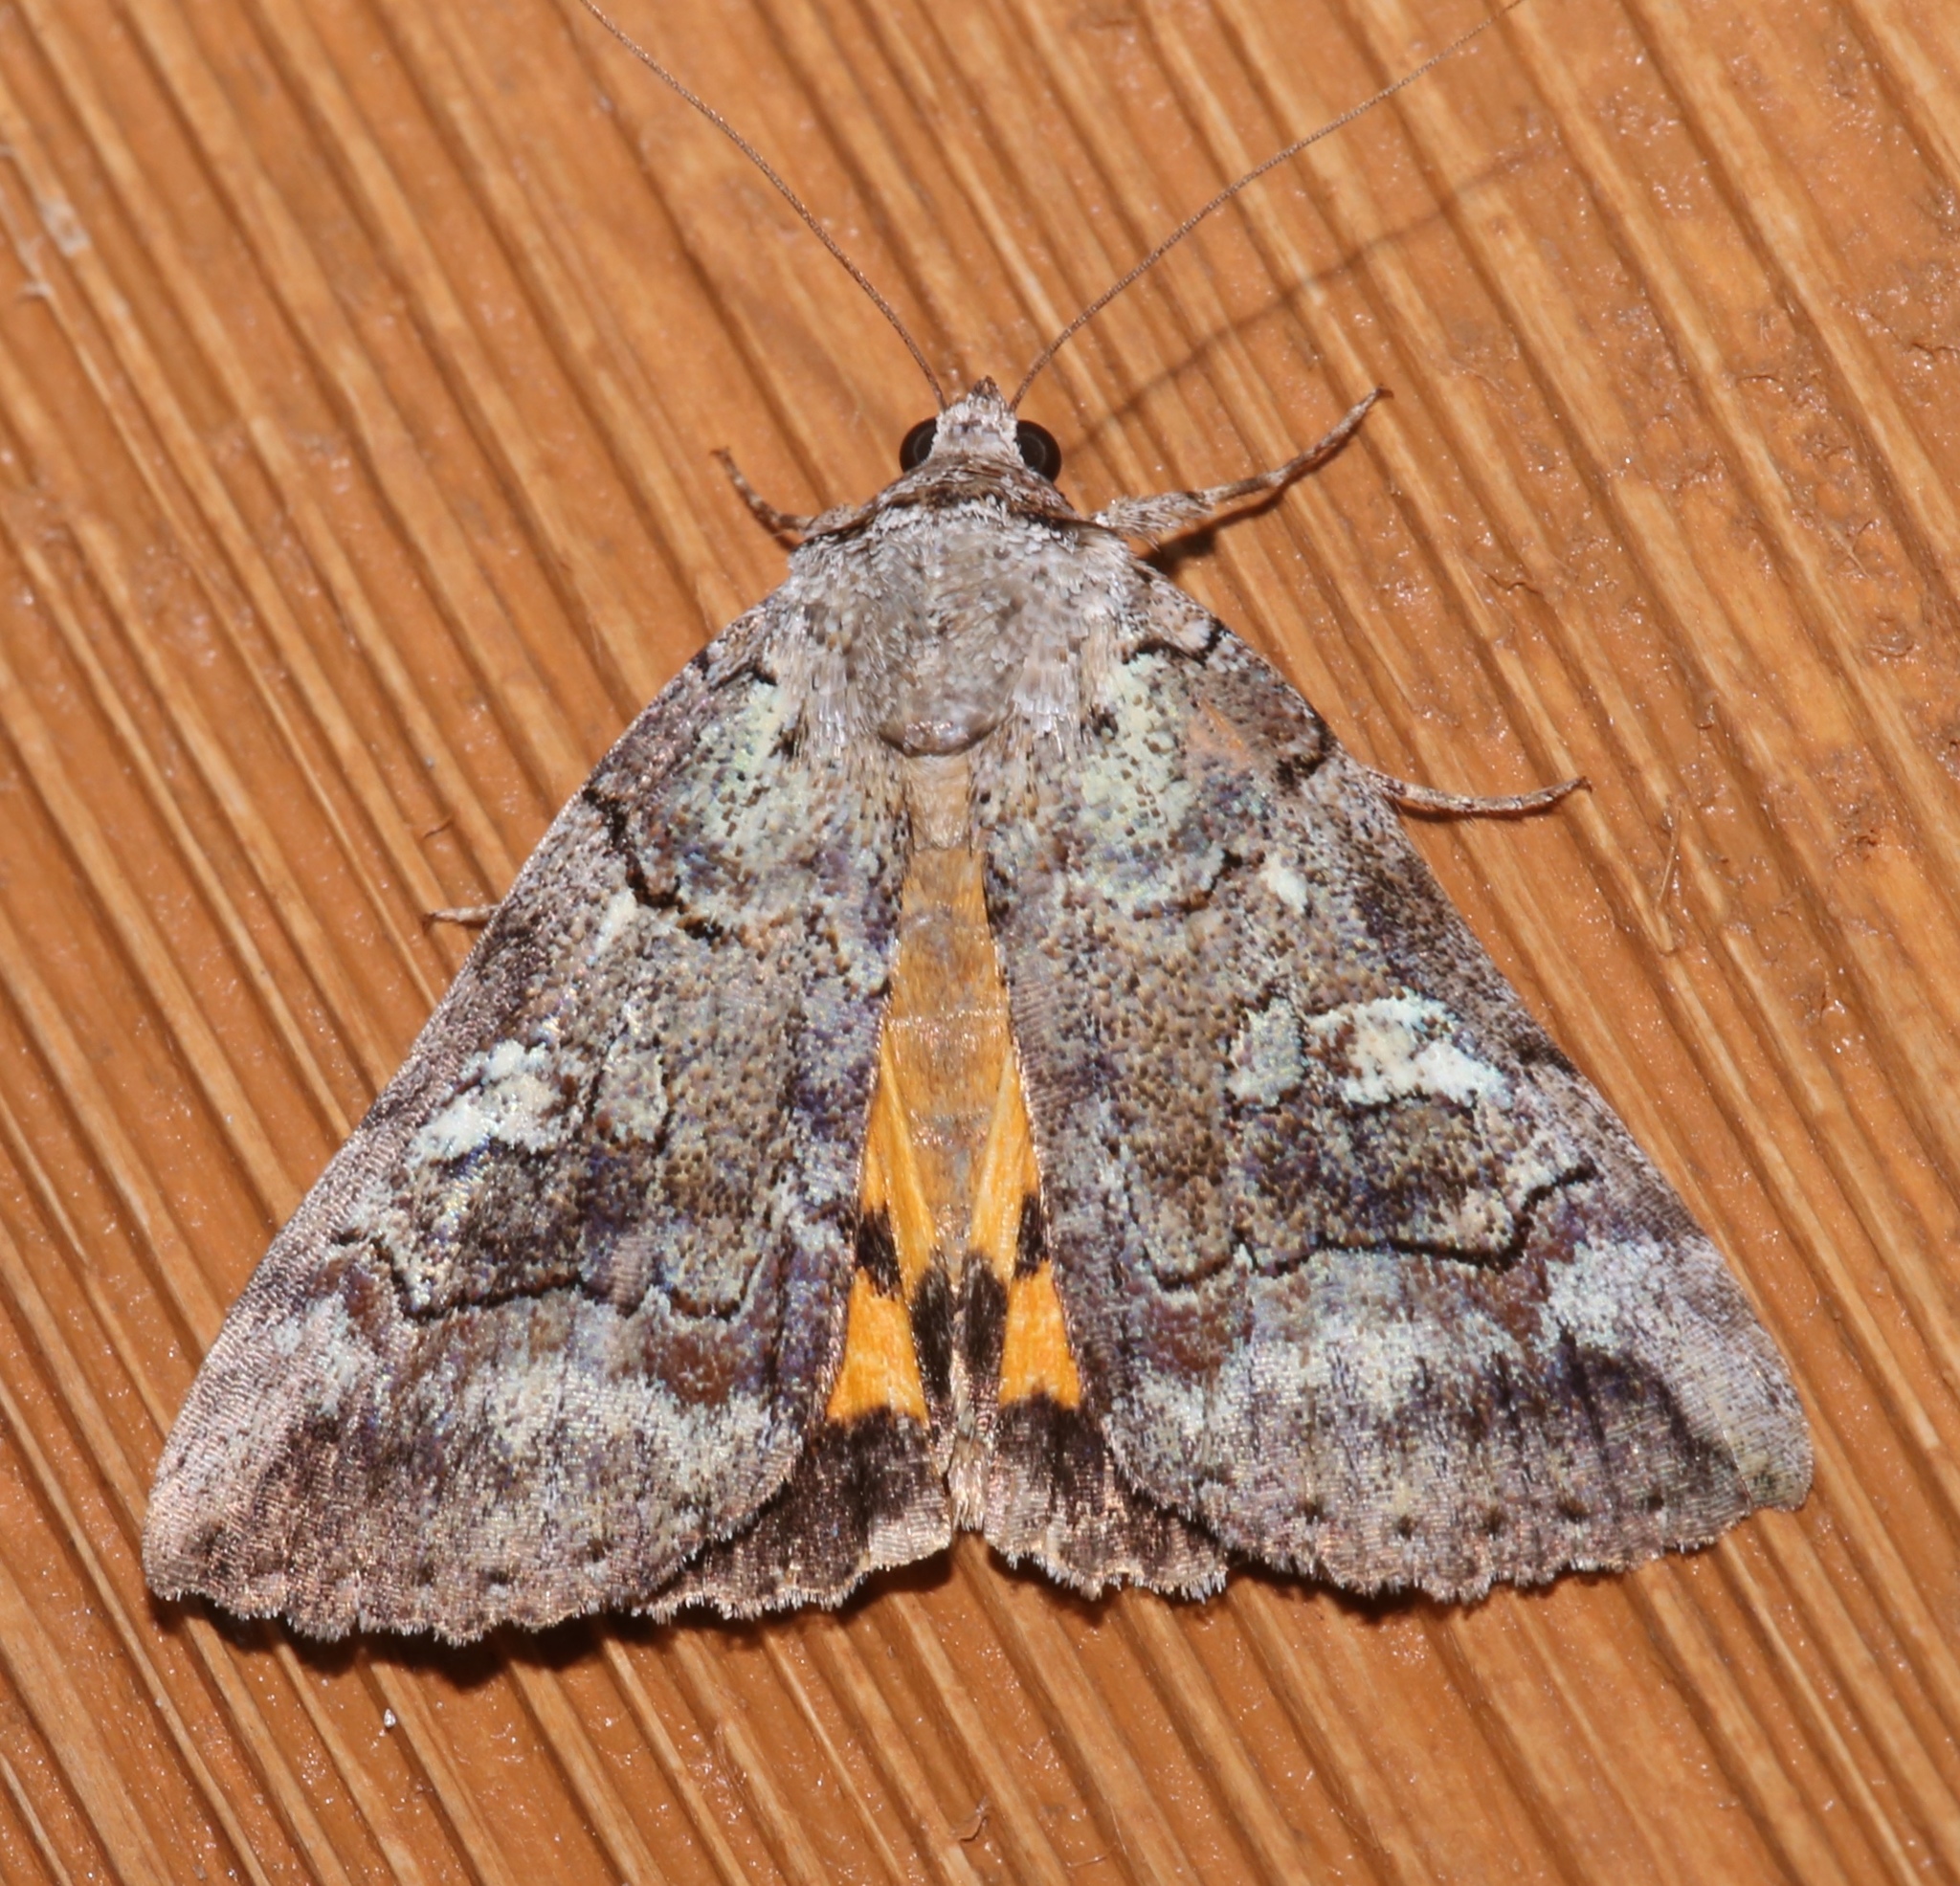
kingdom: Animalia
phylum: Arthropoda
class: Insecta
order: Lepidoptera
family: Erebidae
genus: Catocala
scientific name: Catocala similis
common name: Similar underwing
